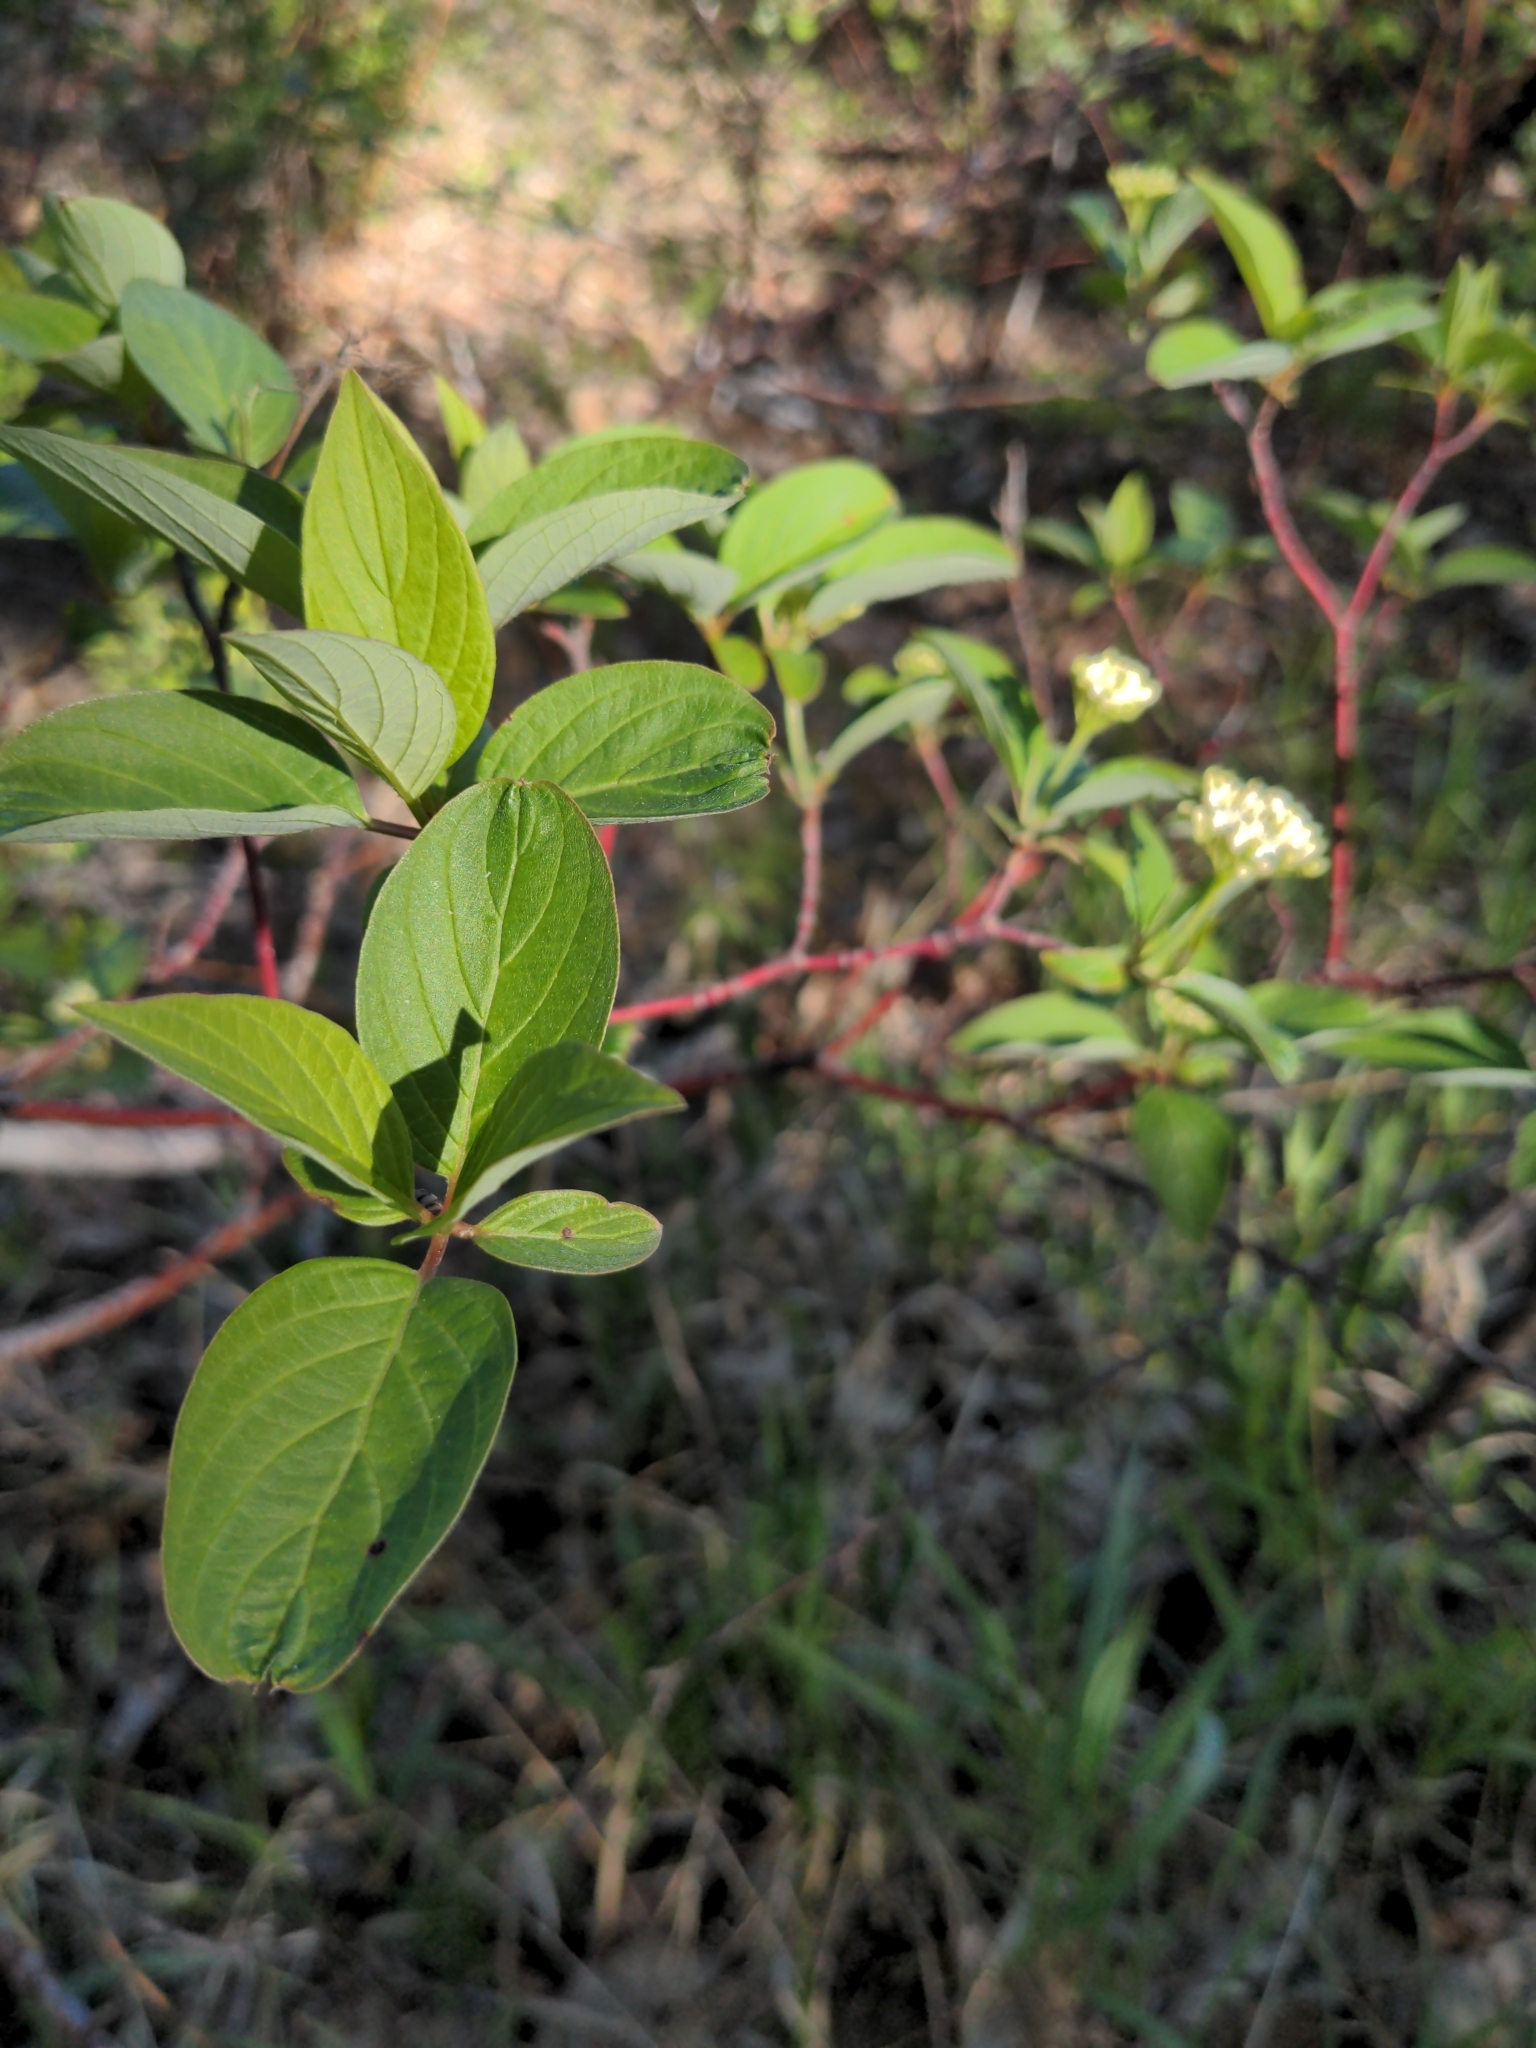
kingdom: Plantae
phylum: Tracheophyta
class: Magnoliopsida
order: Cornales
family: Cornaceae
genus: Cornus
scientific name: Cornus sericea
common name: Red-osier dogwood
